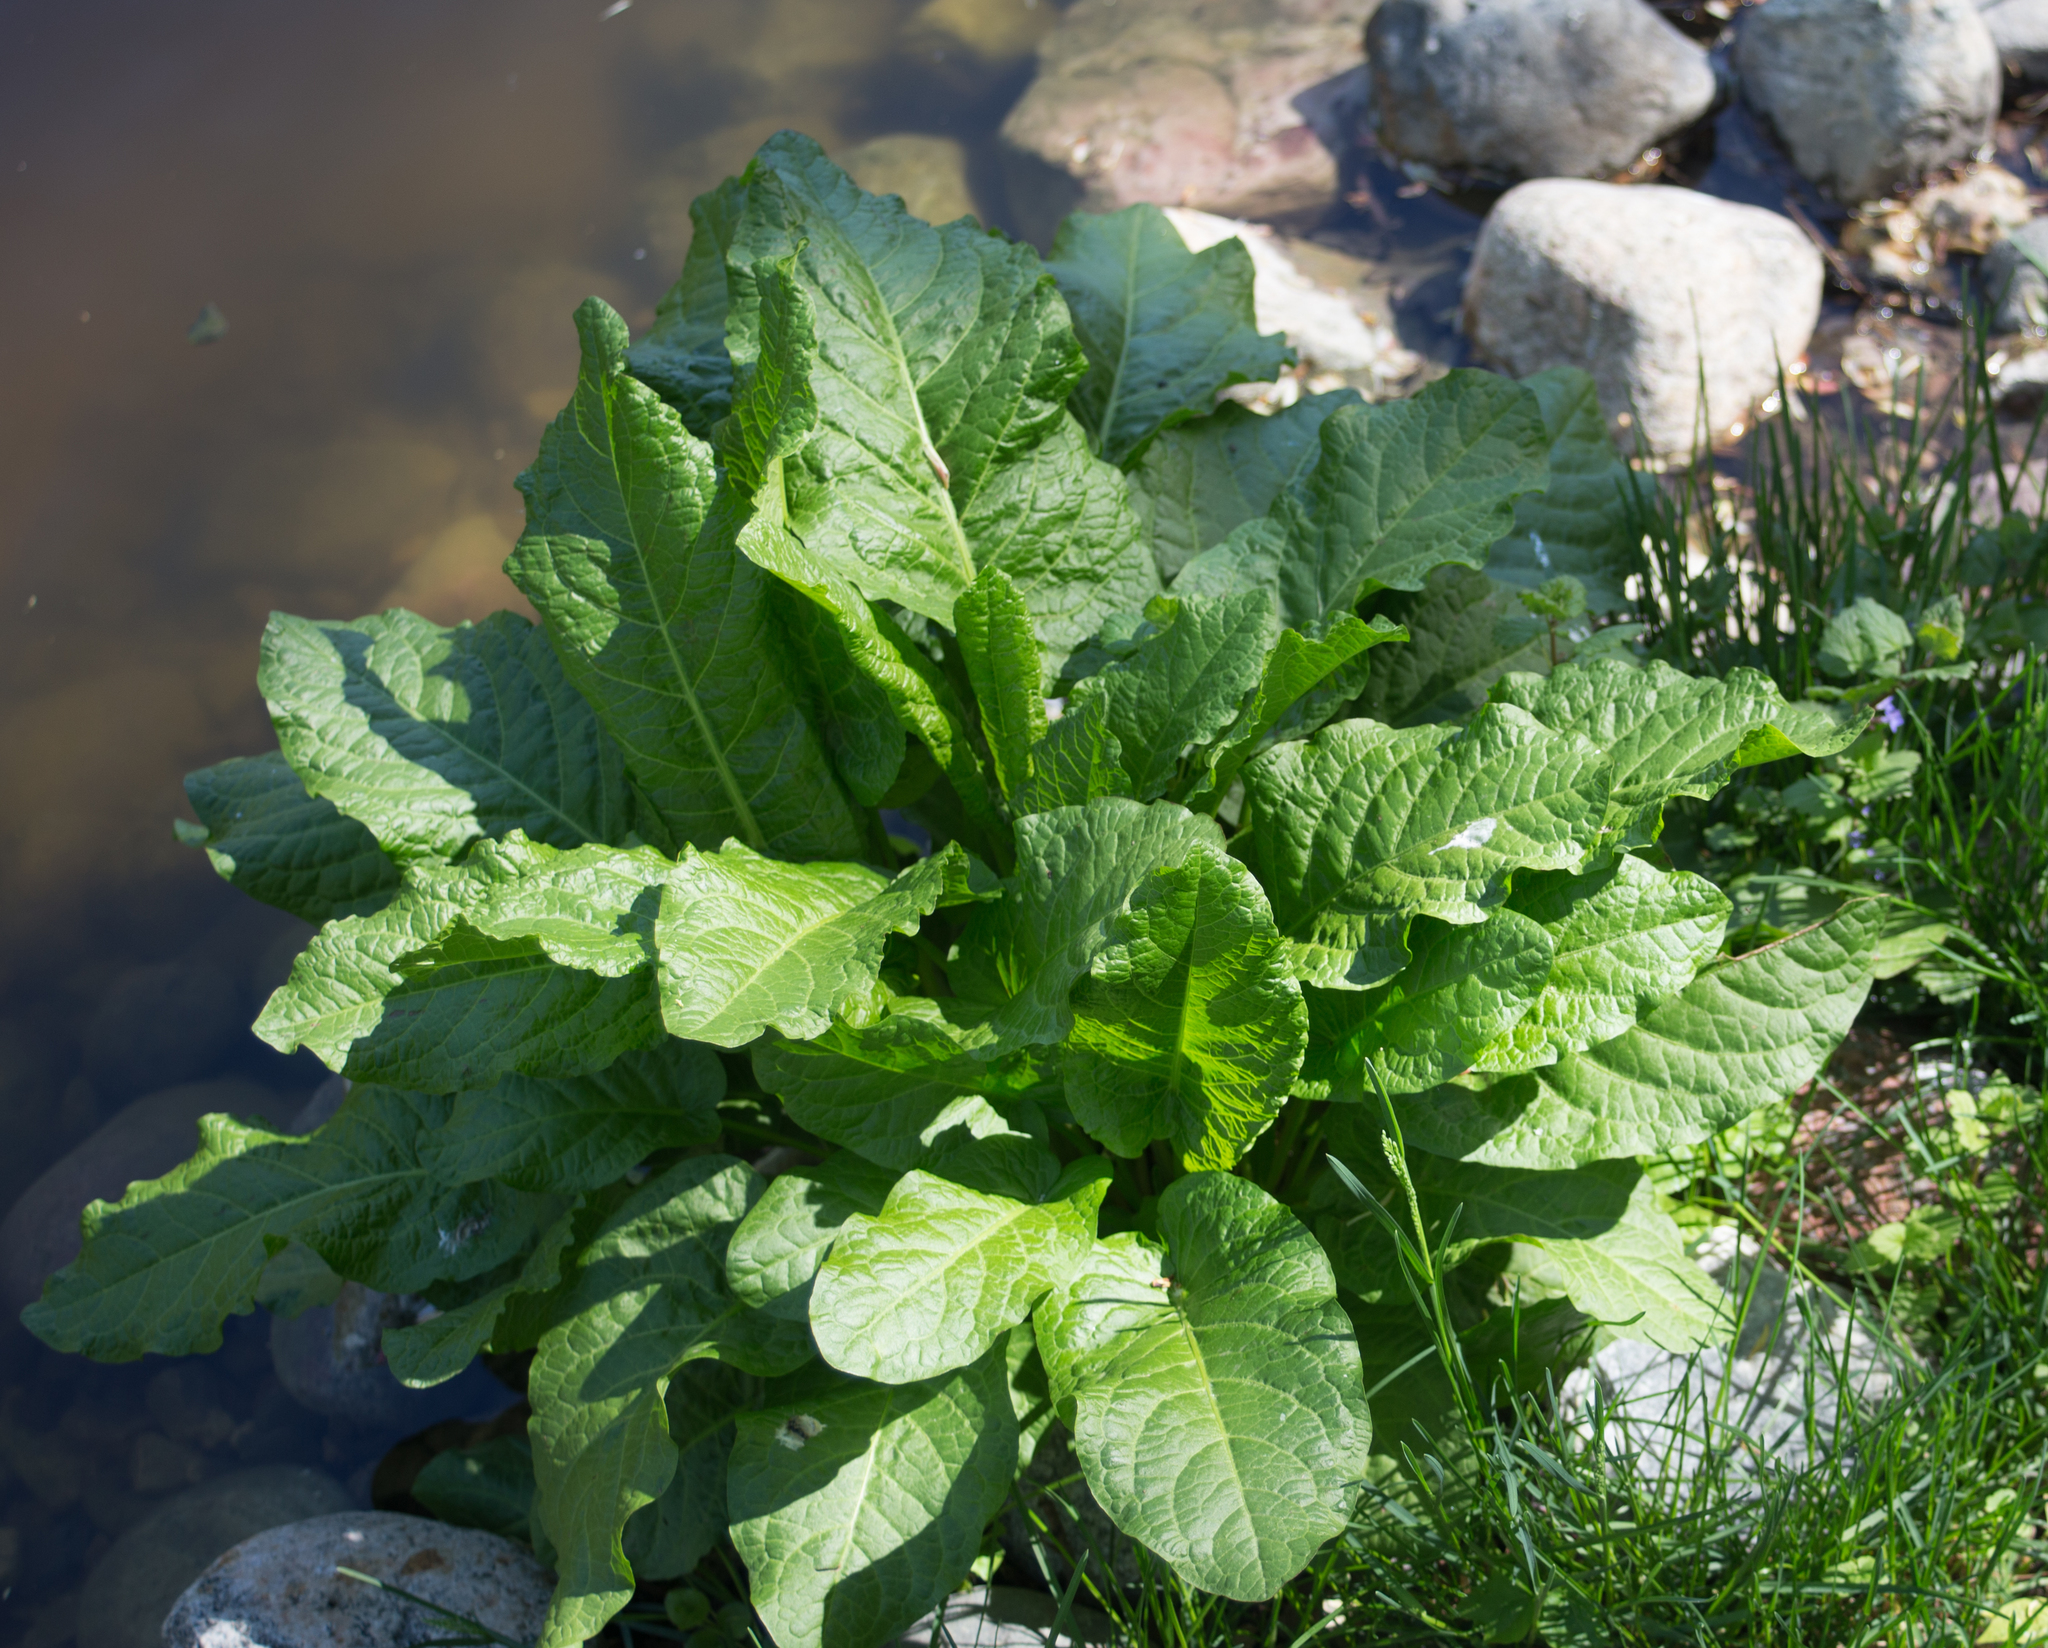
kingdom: Plantae
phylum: Tracheophyta
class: Magnoliopsida
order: Caryophyllales
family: Polygonaceae
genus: Rumex
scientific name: Rumex obtusifolius
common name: Bitter dock
